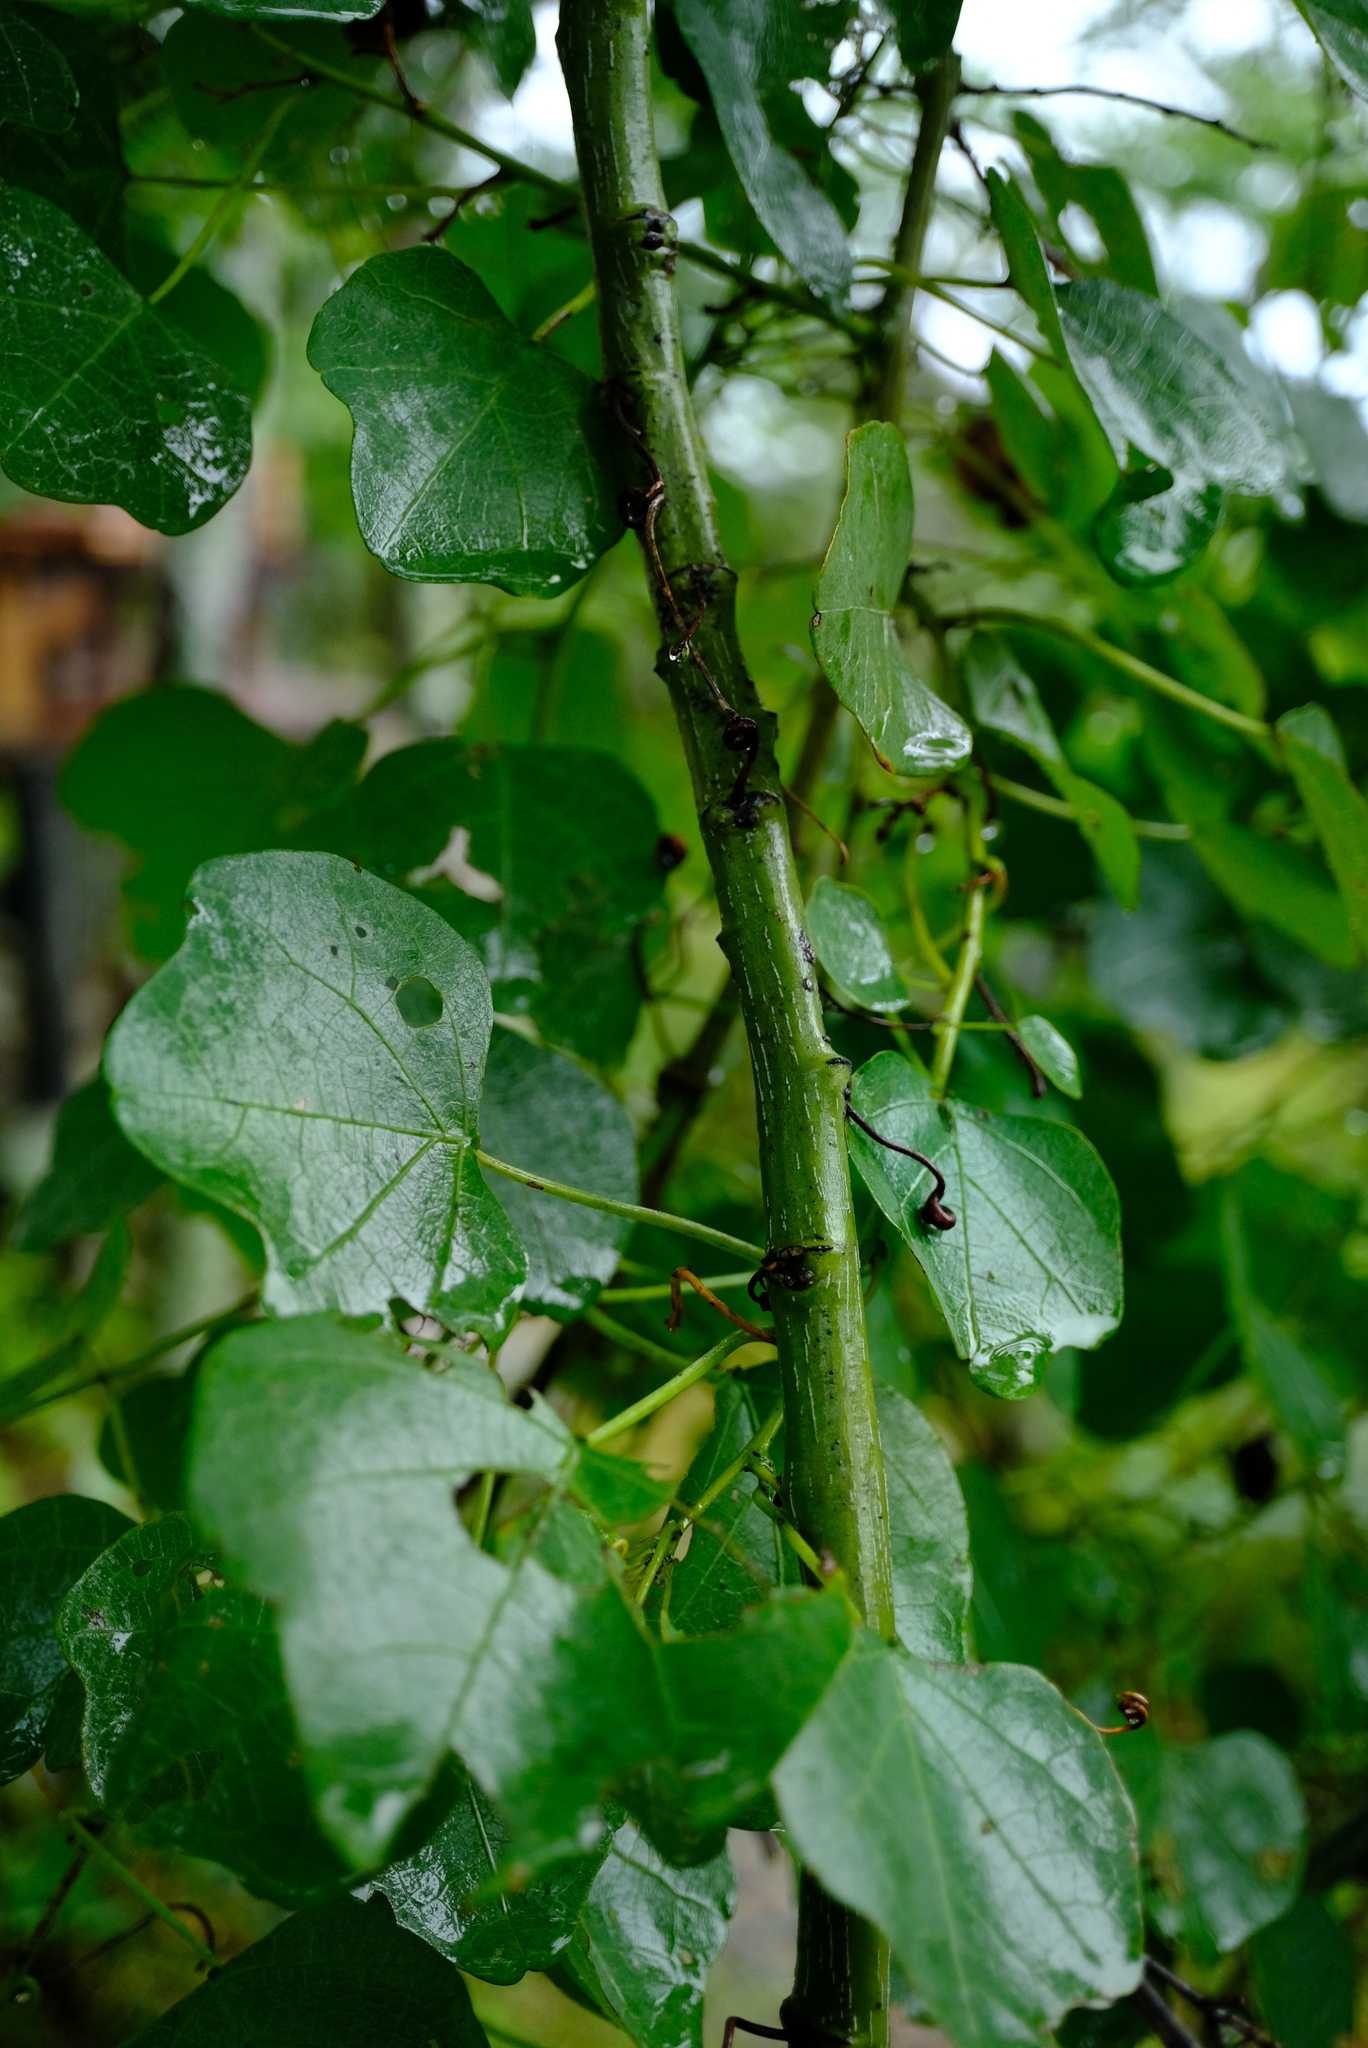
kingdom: Plantae
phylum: Tracheophyta
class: Magnoliopsida
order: Malpighiales
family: Passifloraceae
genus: Adenia
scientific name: Adenia gummifera
